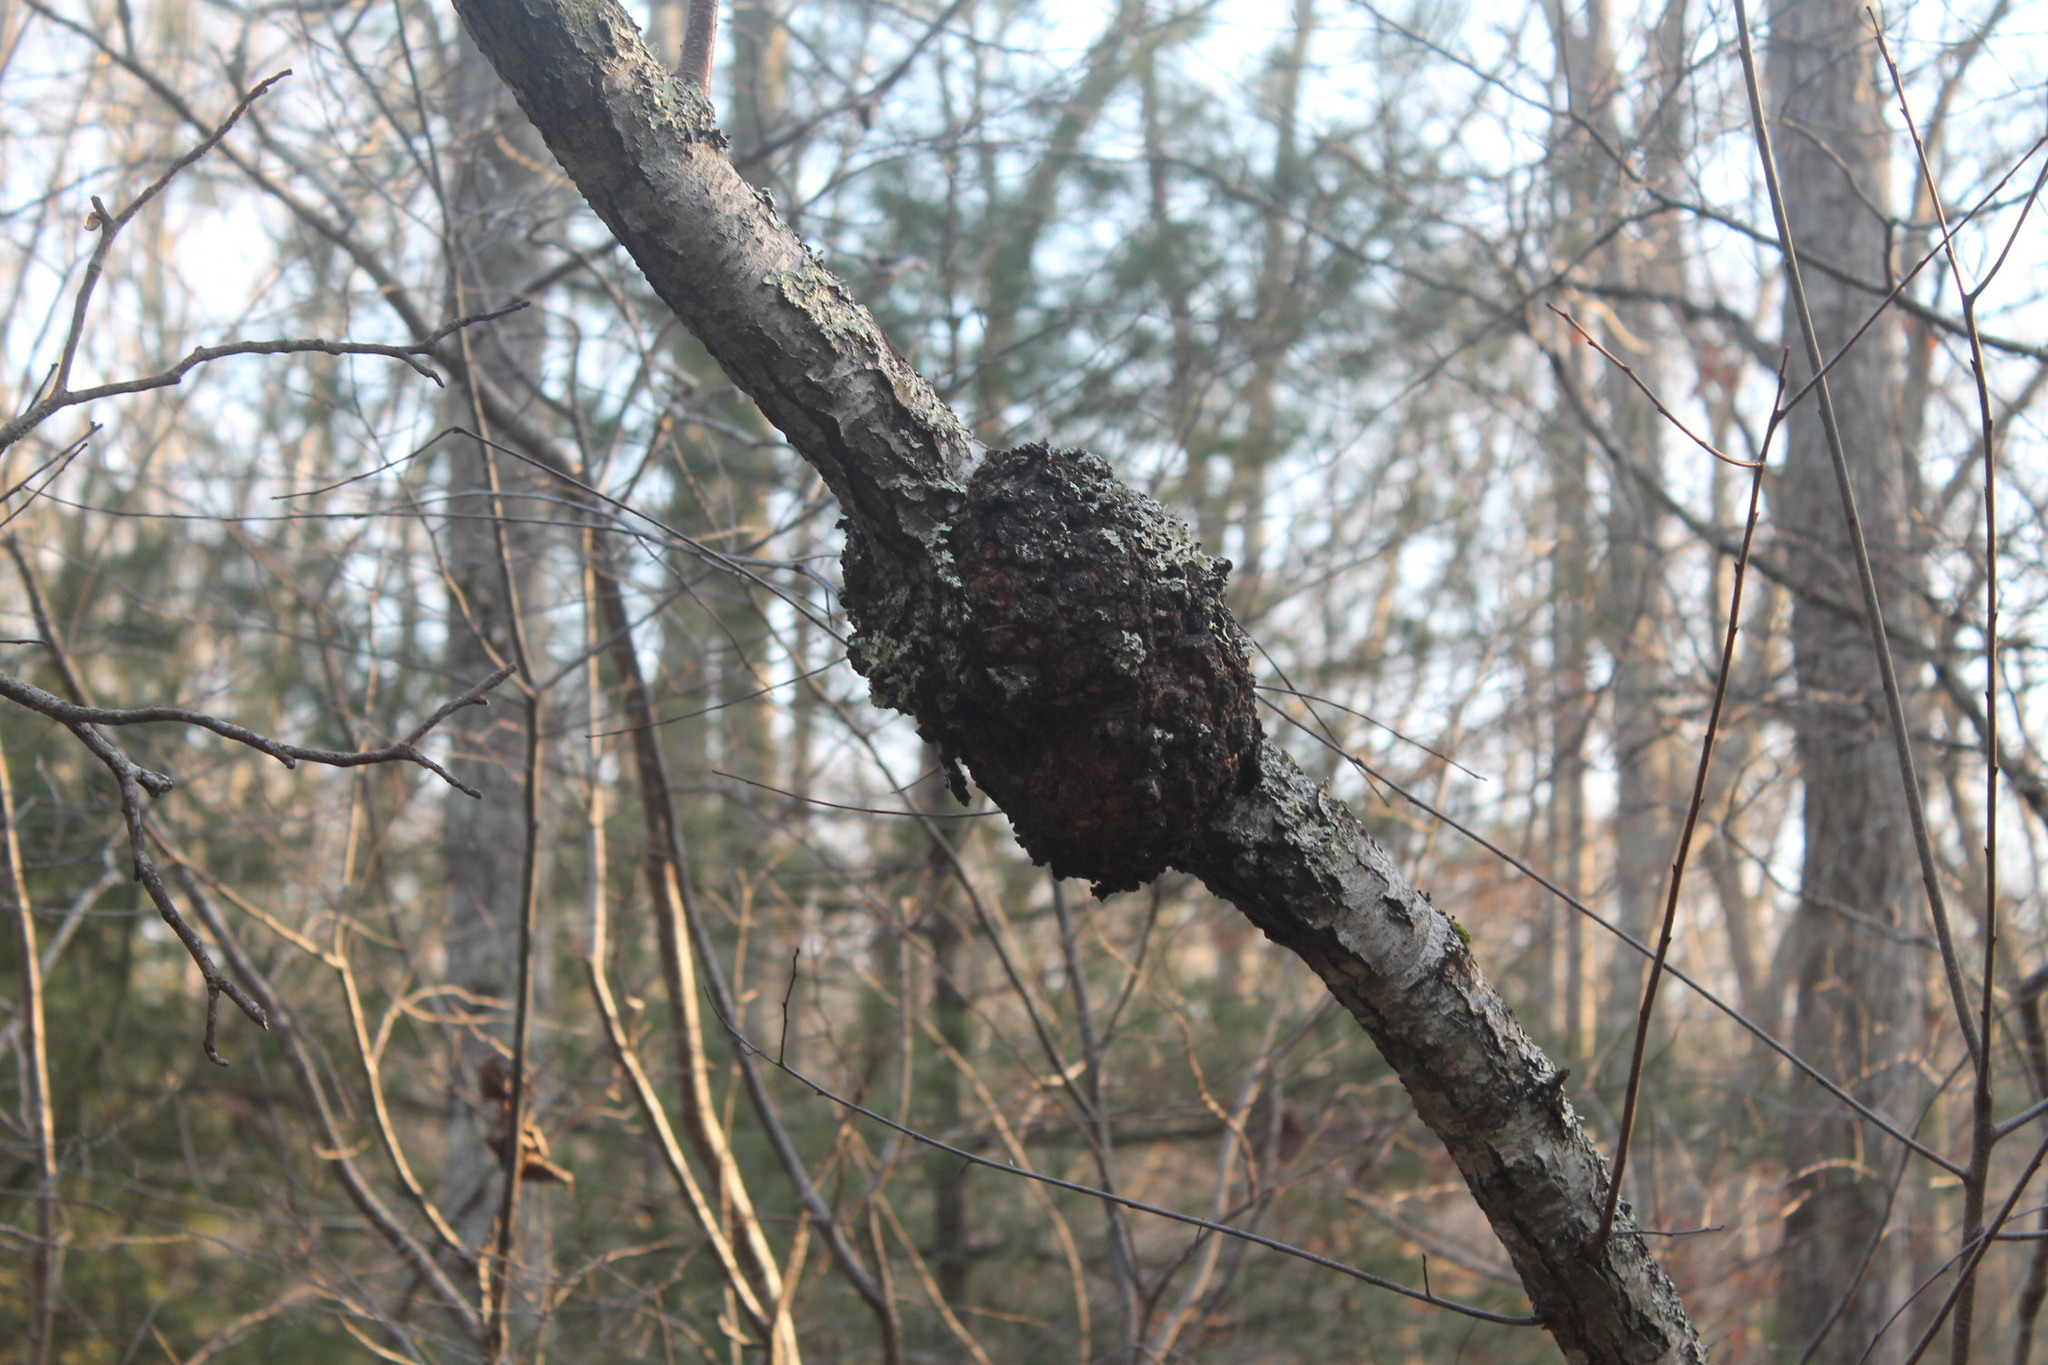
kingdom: Bacteria
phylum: Proteobacteria
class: Alphaproteobacteria
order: Rhizobiales
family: Rhizobiaceae
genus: Rhizobium
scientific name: Rhizobium Agrobacterium radiobacter
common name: Bacterial crown gall
